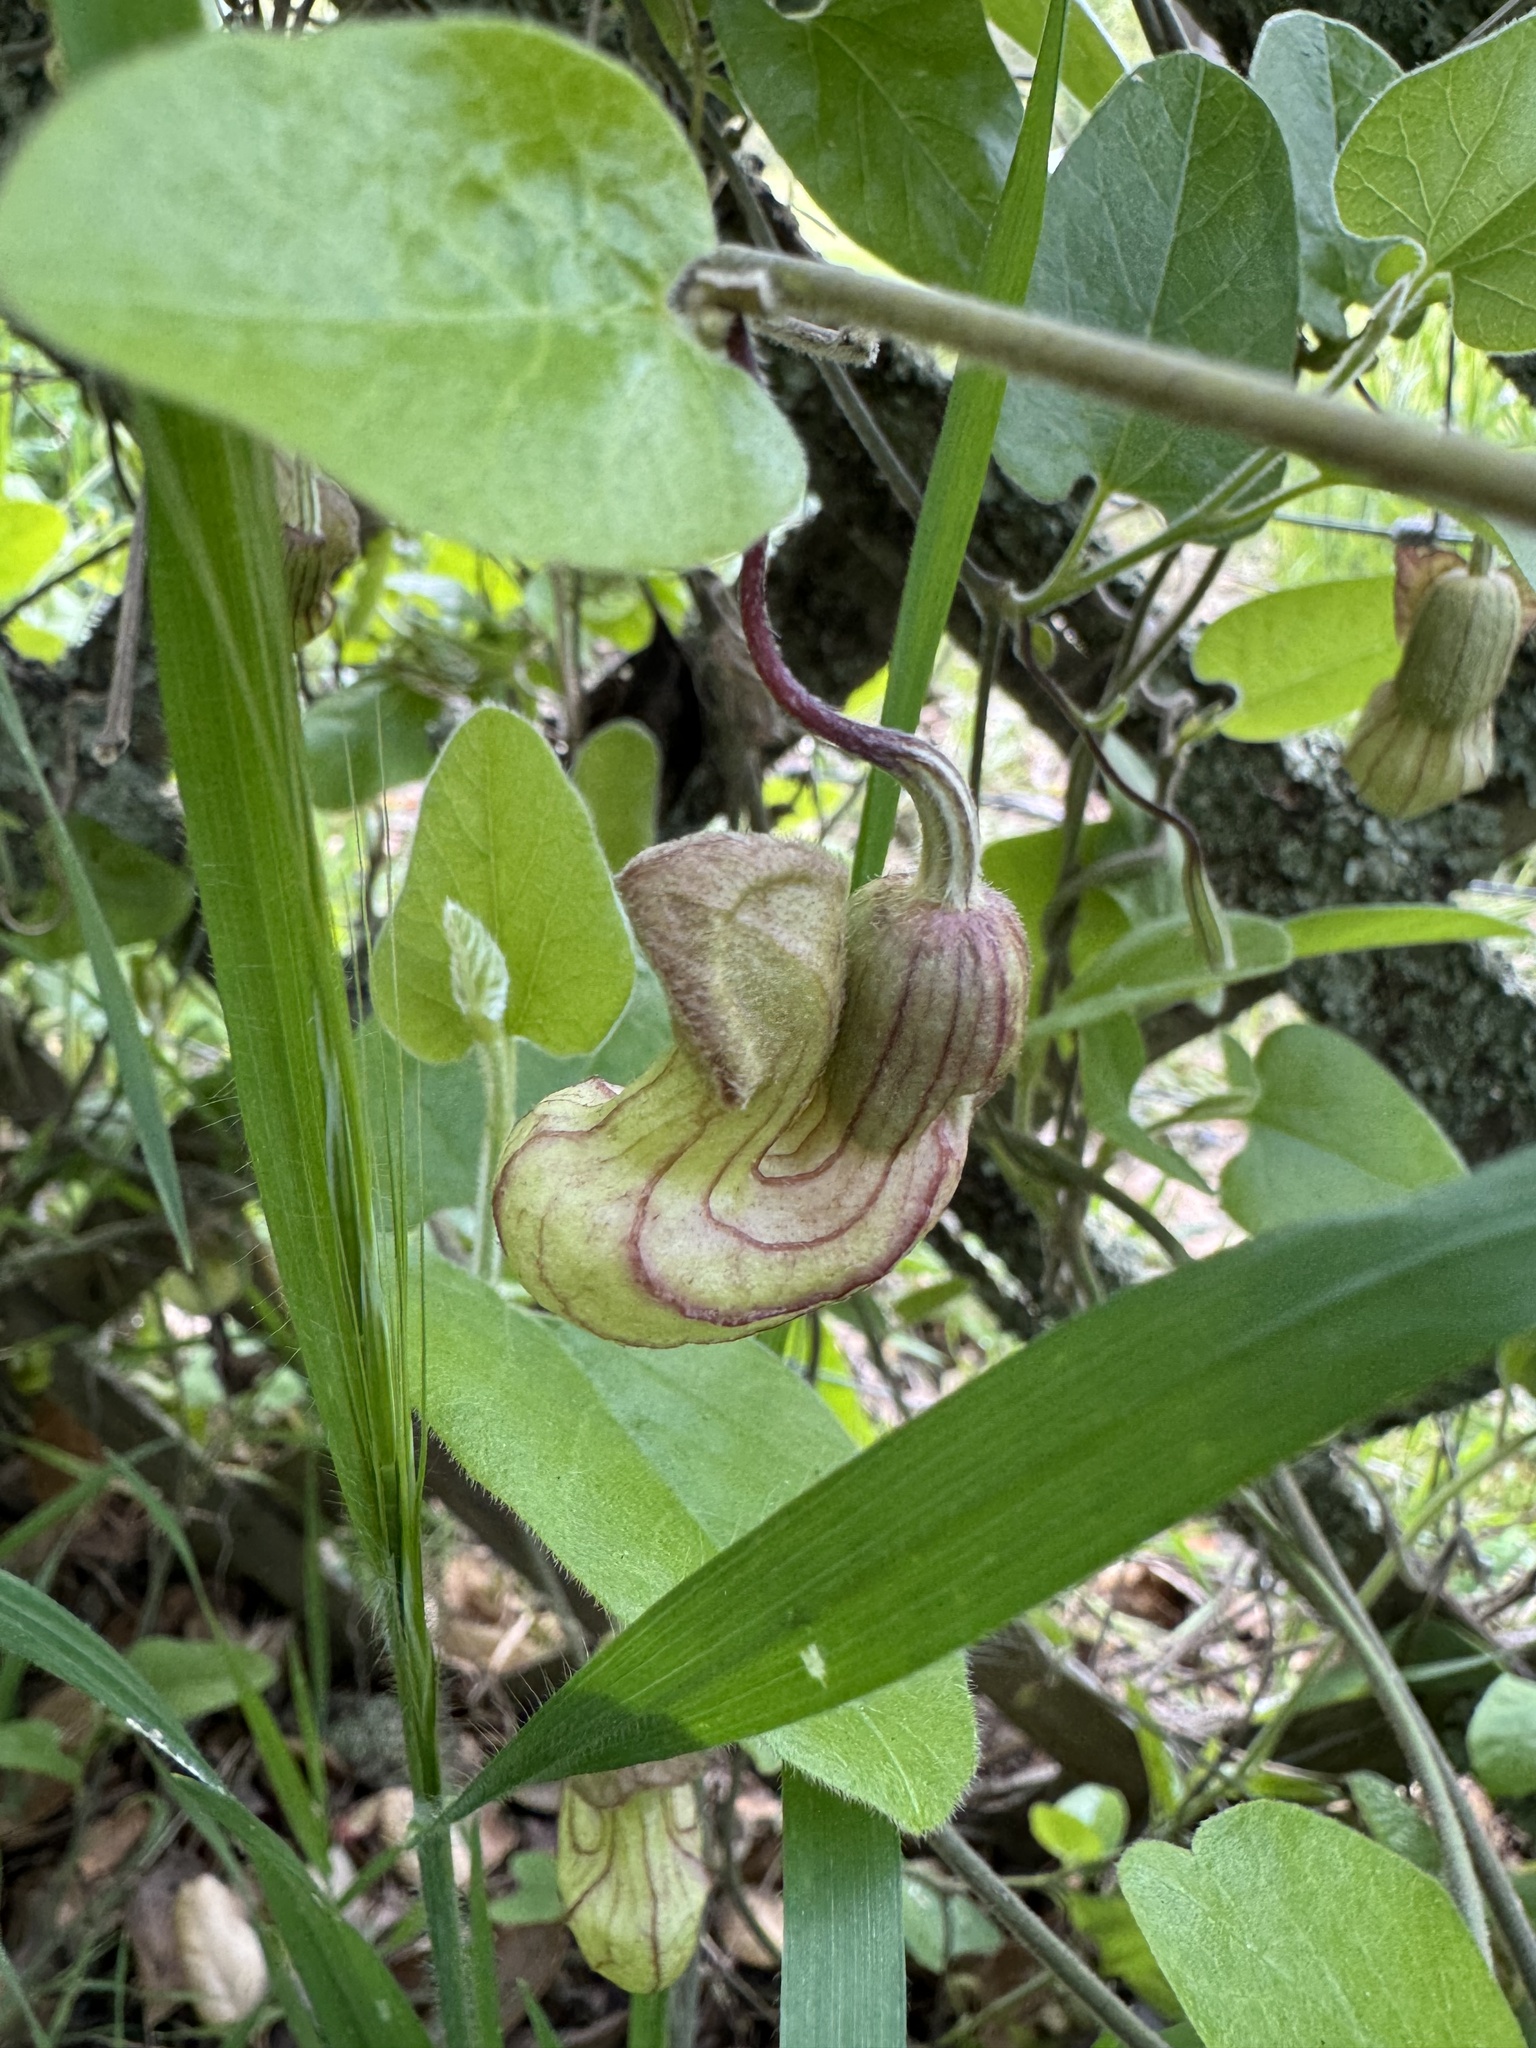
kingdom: Plantae
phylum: Tracheophyta
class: Magnoliopsida
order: Piperales
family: Aristolochiaceae
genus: Isotrema
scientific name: Isotrema californicum
